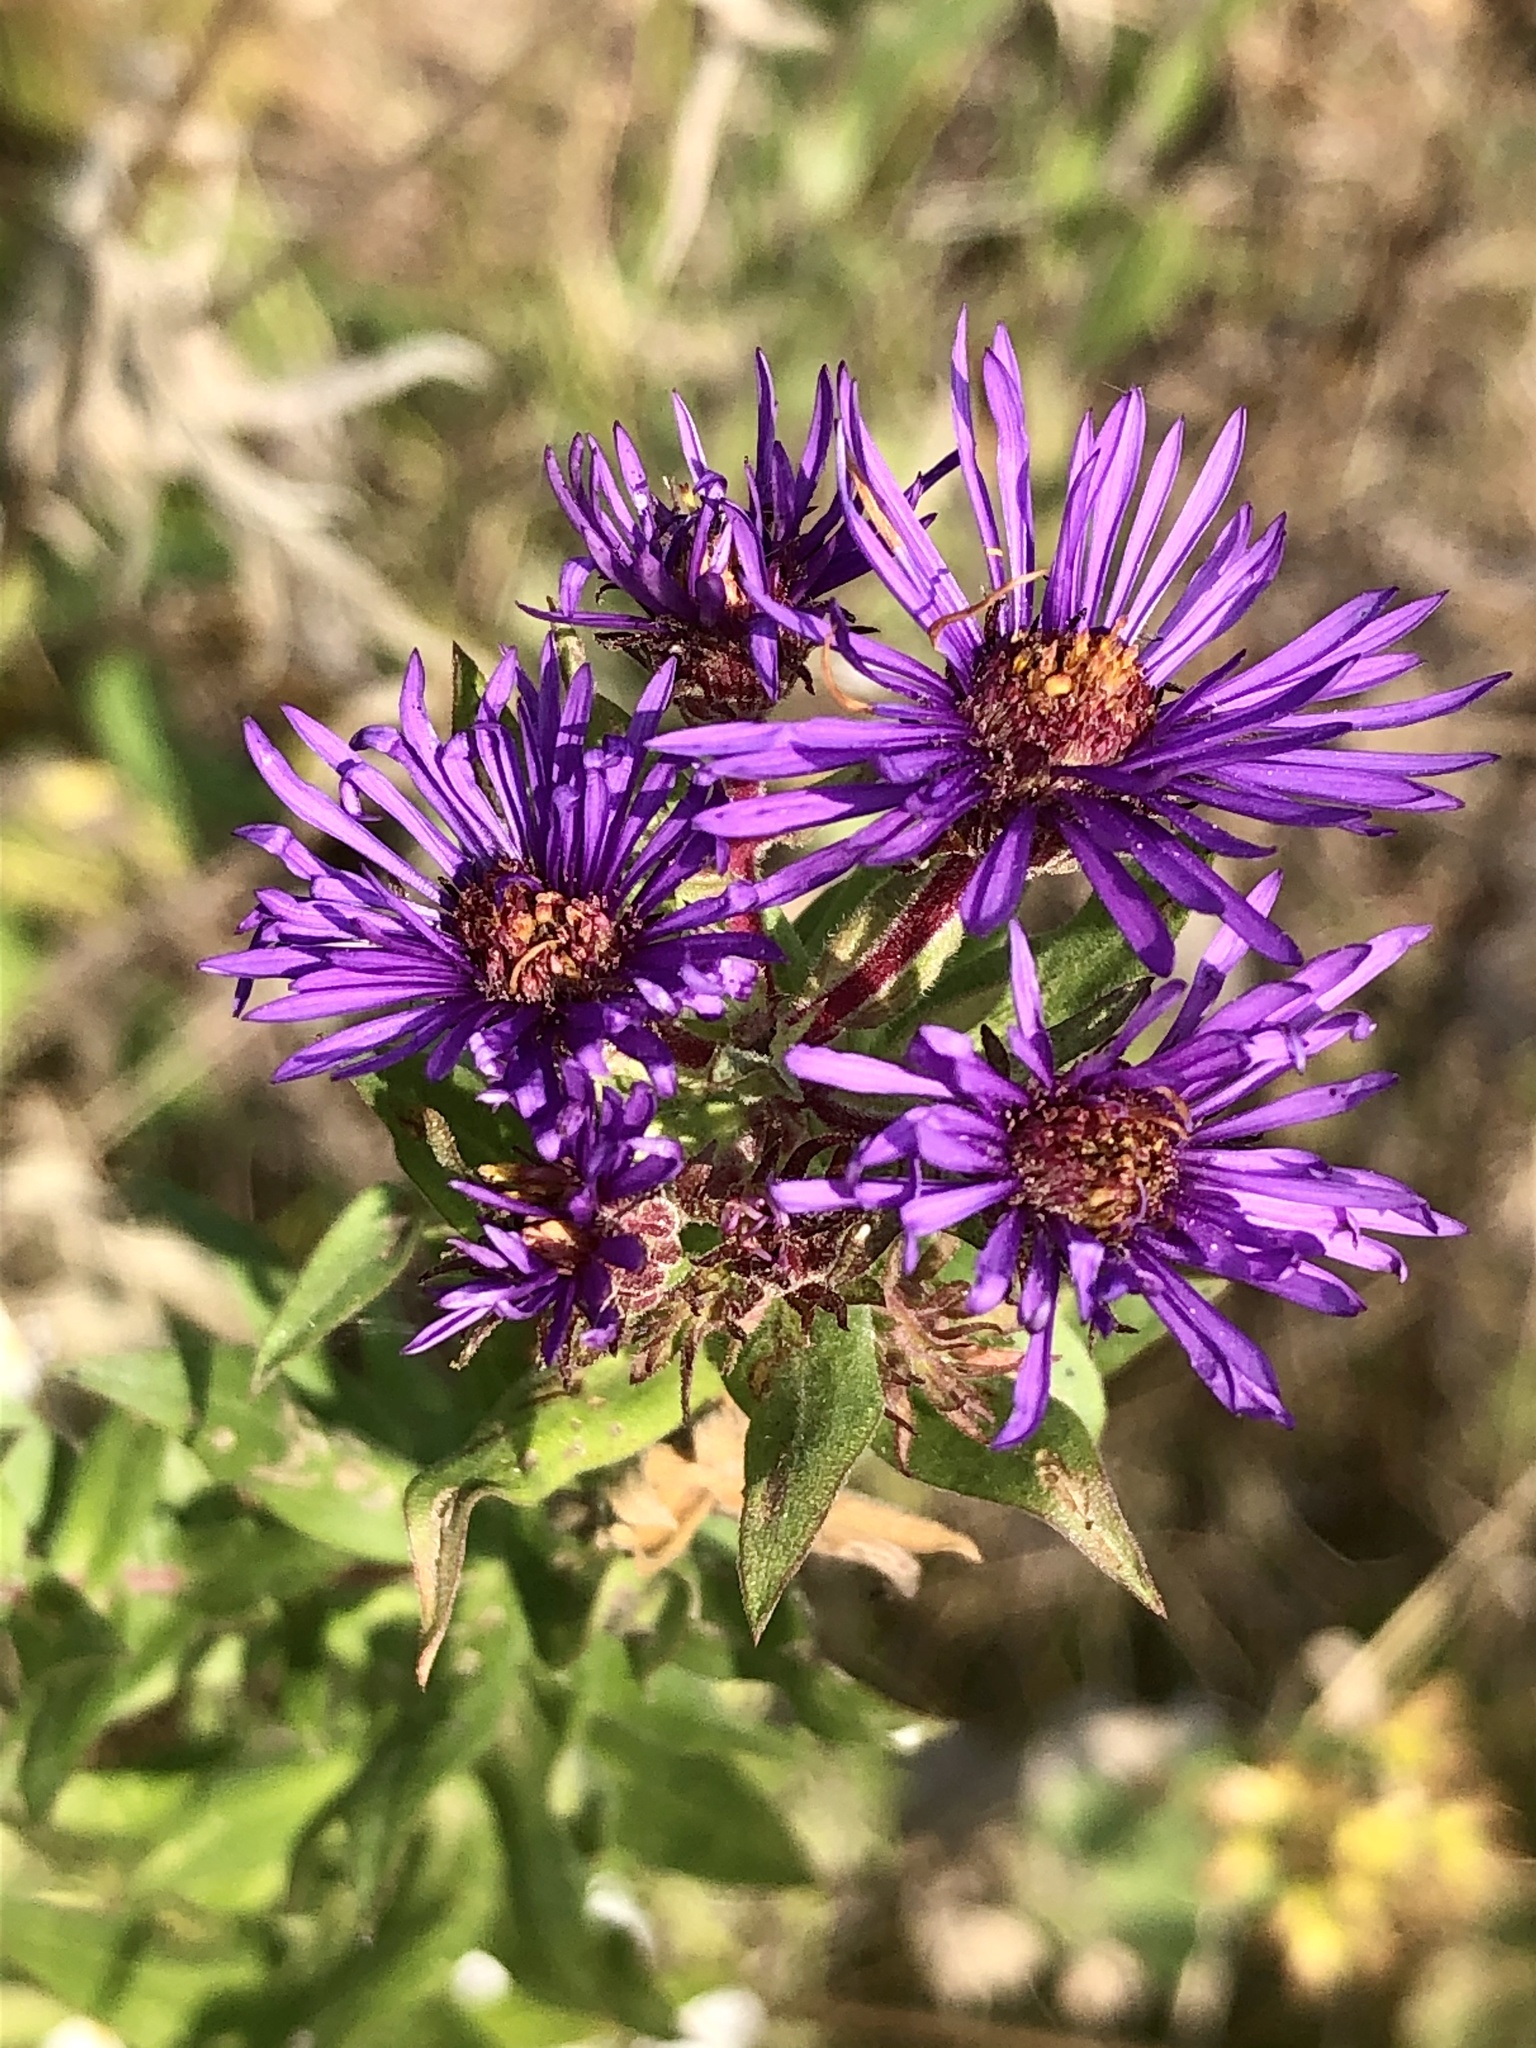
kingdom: Plantae
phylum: Tracheophyta
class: Magnoliopsida
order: Asterales
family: Asteraceae
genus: Symphyotrichum
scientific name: Symphyotrichum novae-angliae
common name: Michaelmas daisy
